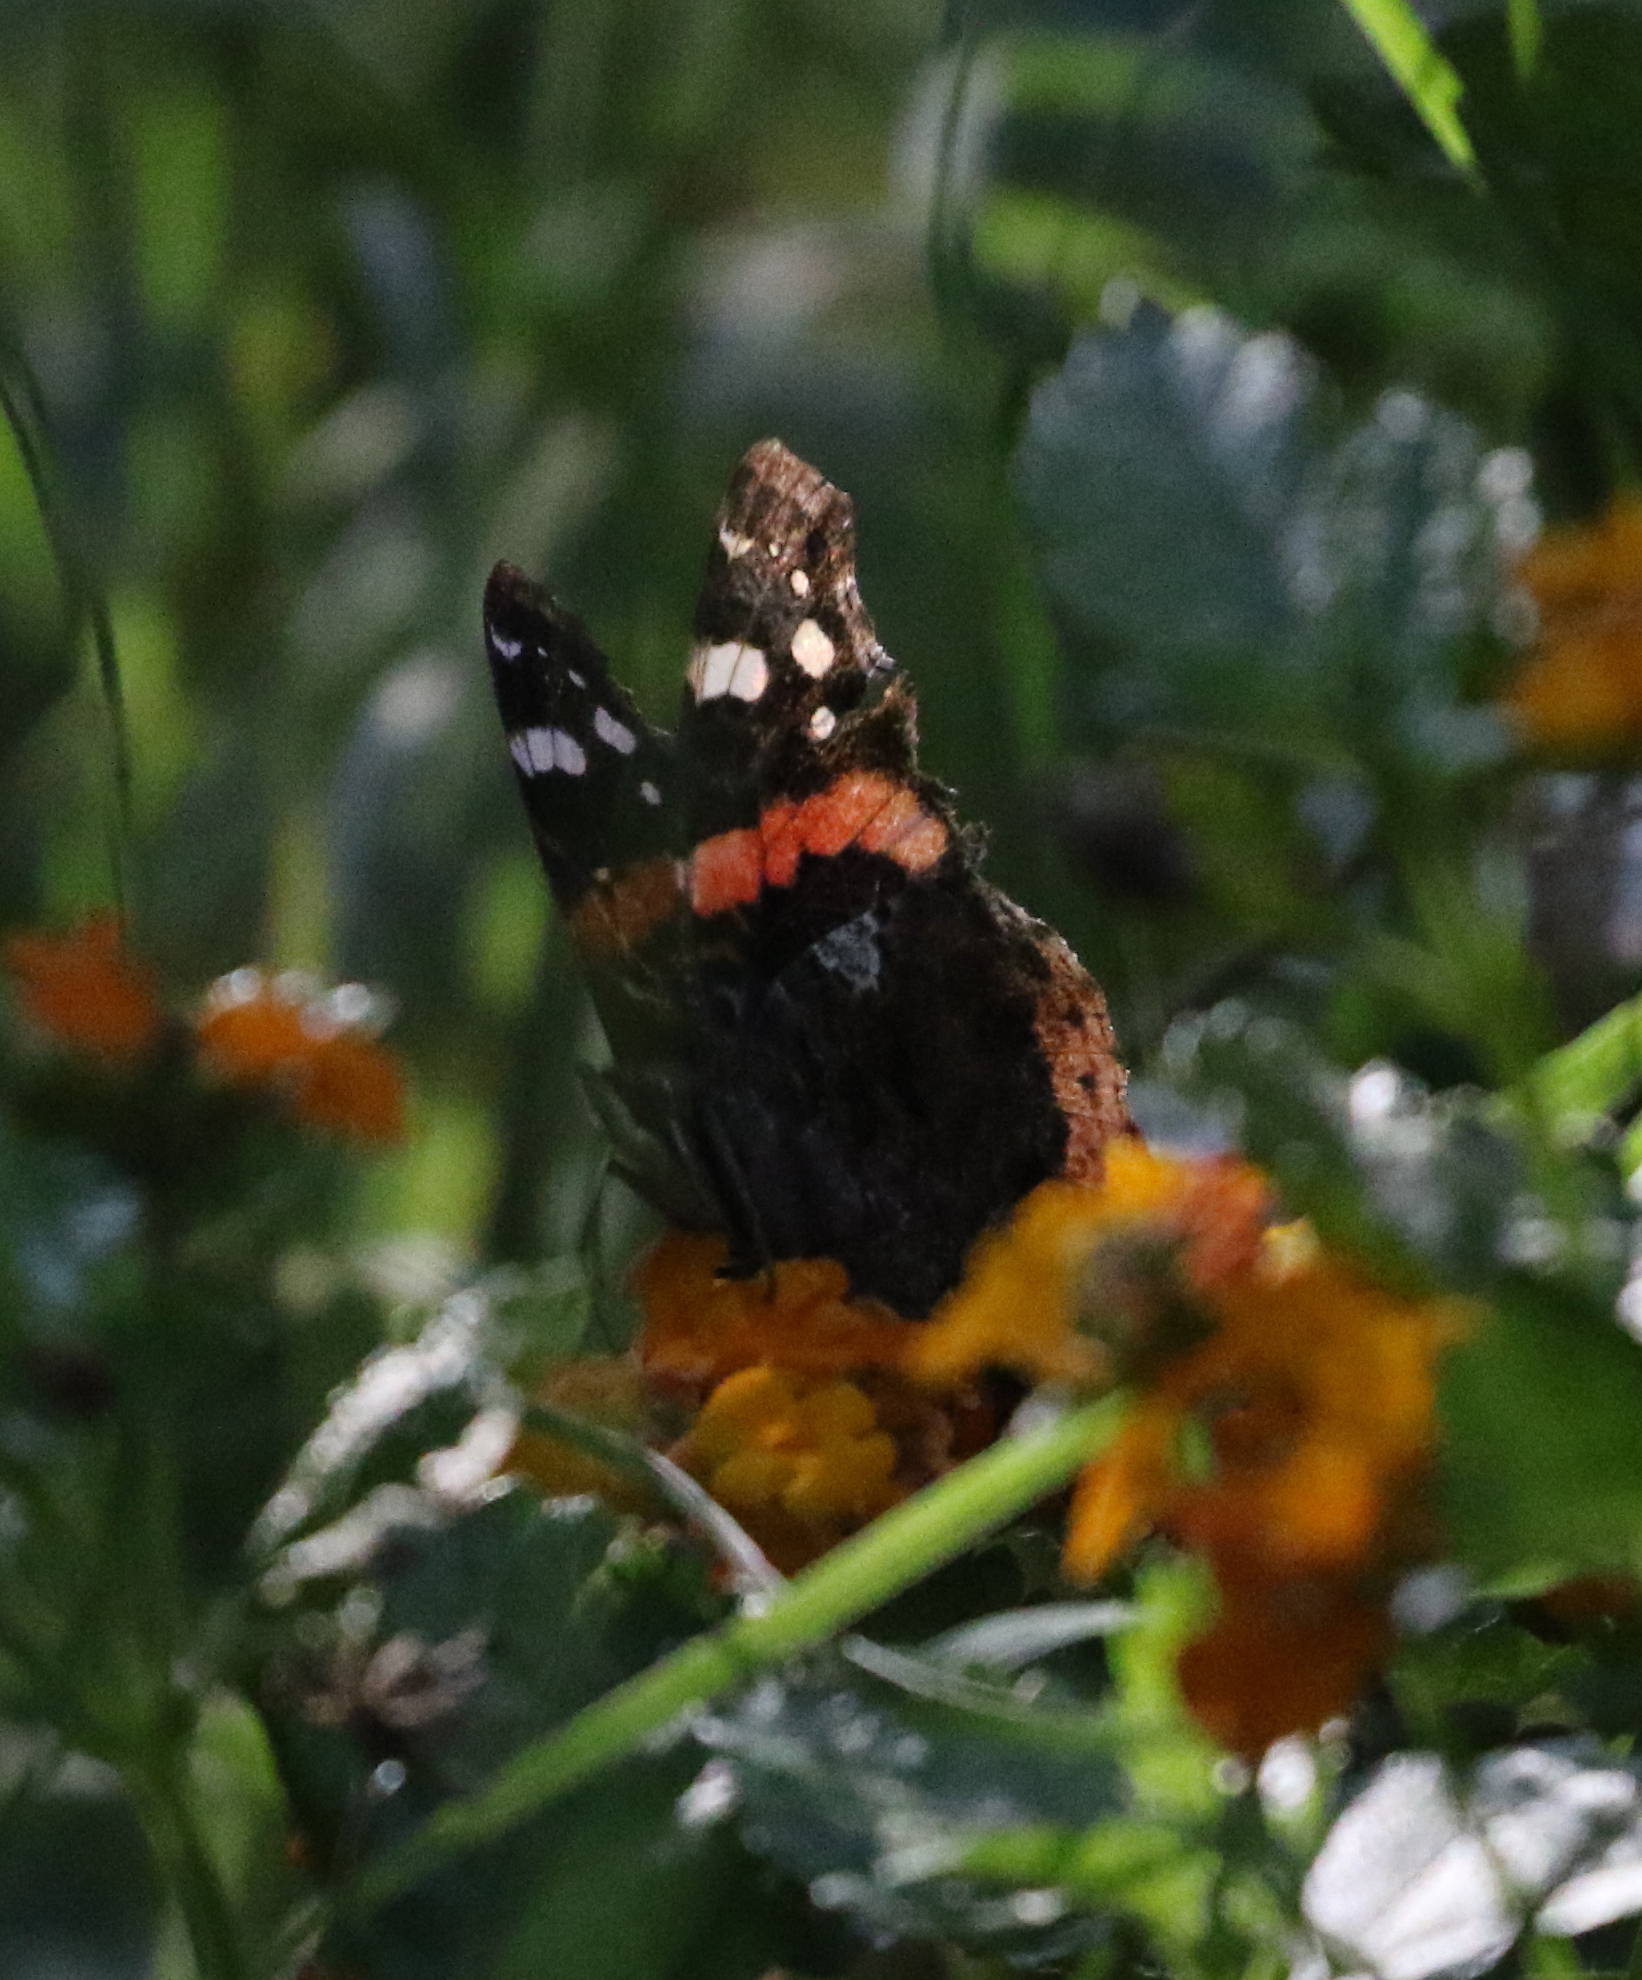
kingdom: Animalia
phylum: Arthropoda
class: Insecta
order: Lepidoptera
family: Nymphalidae
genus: Vanessa
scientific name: Vanessa atalanta
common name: Red admiral
